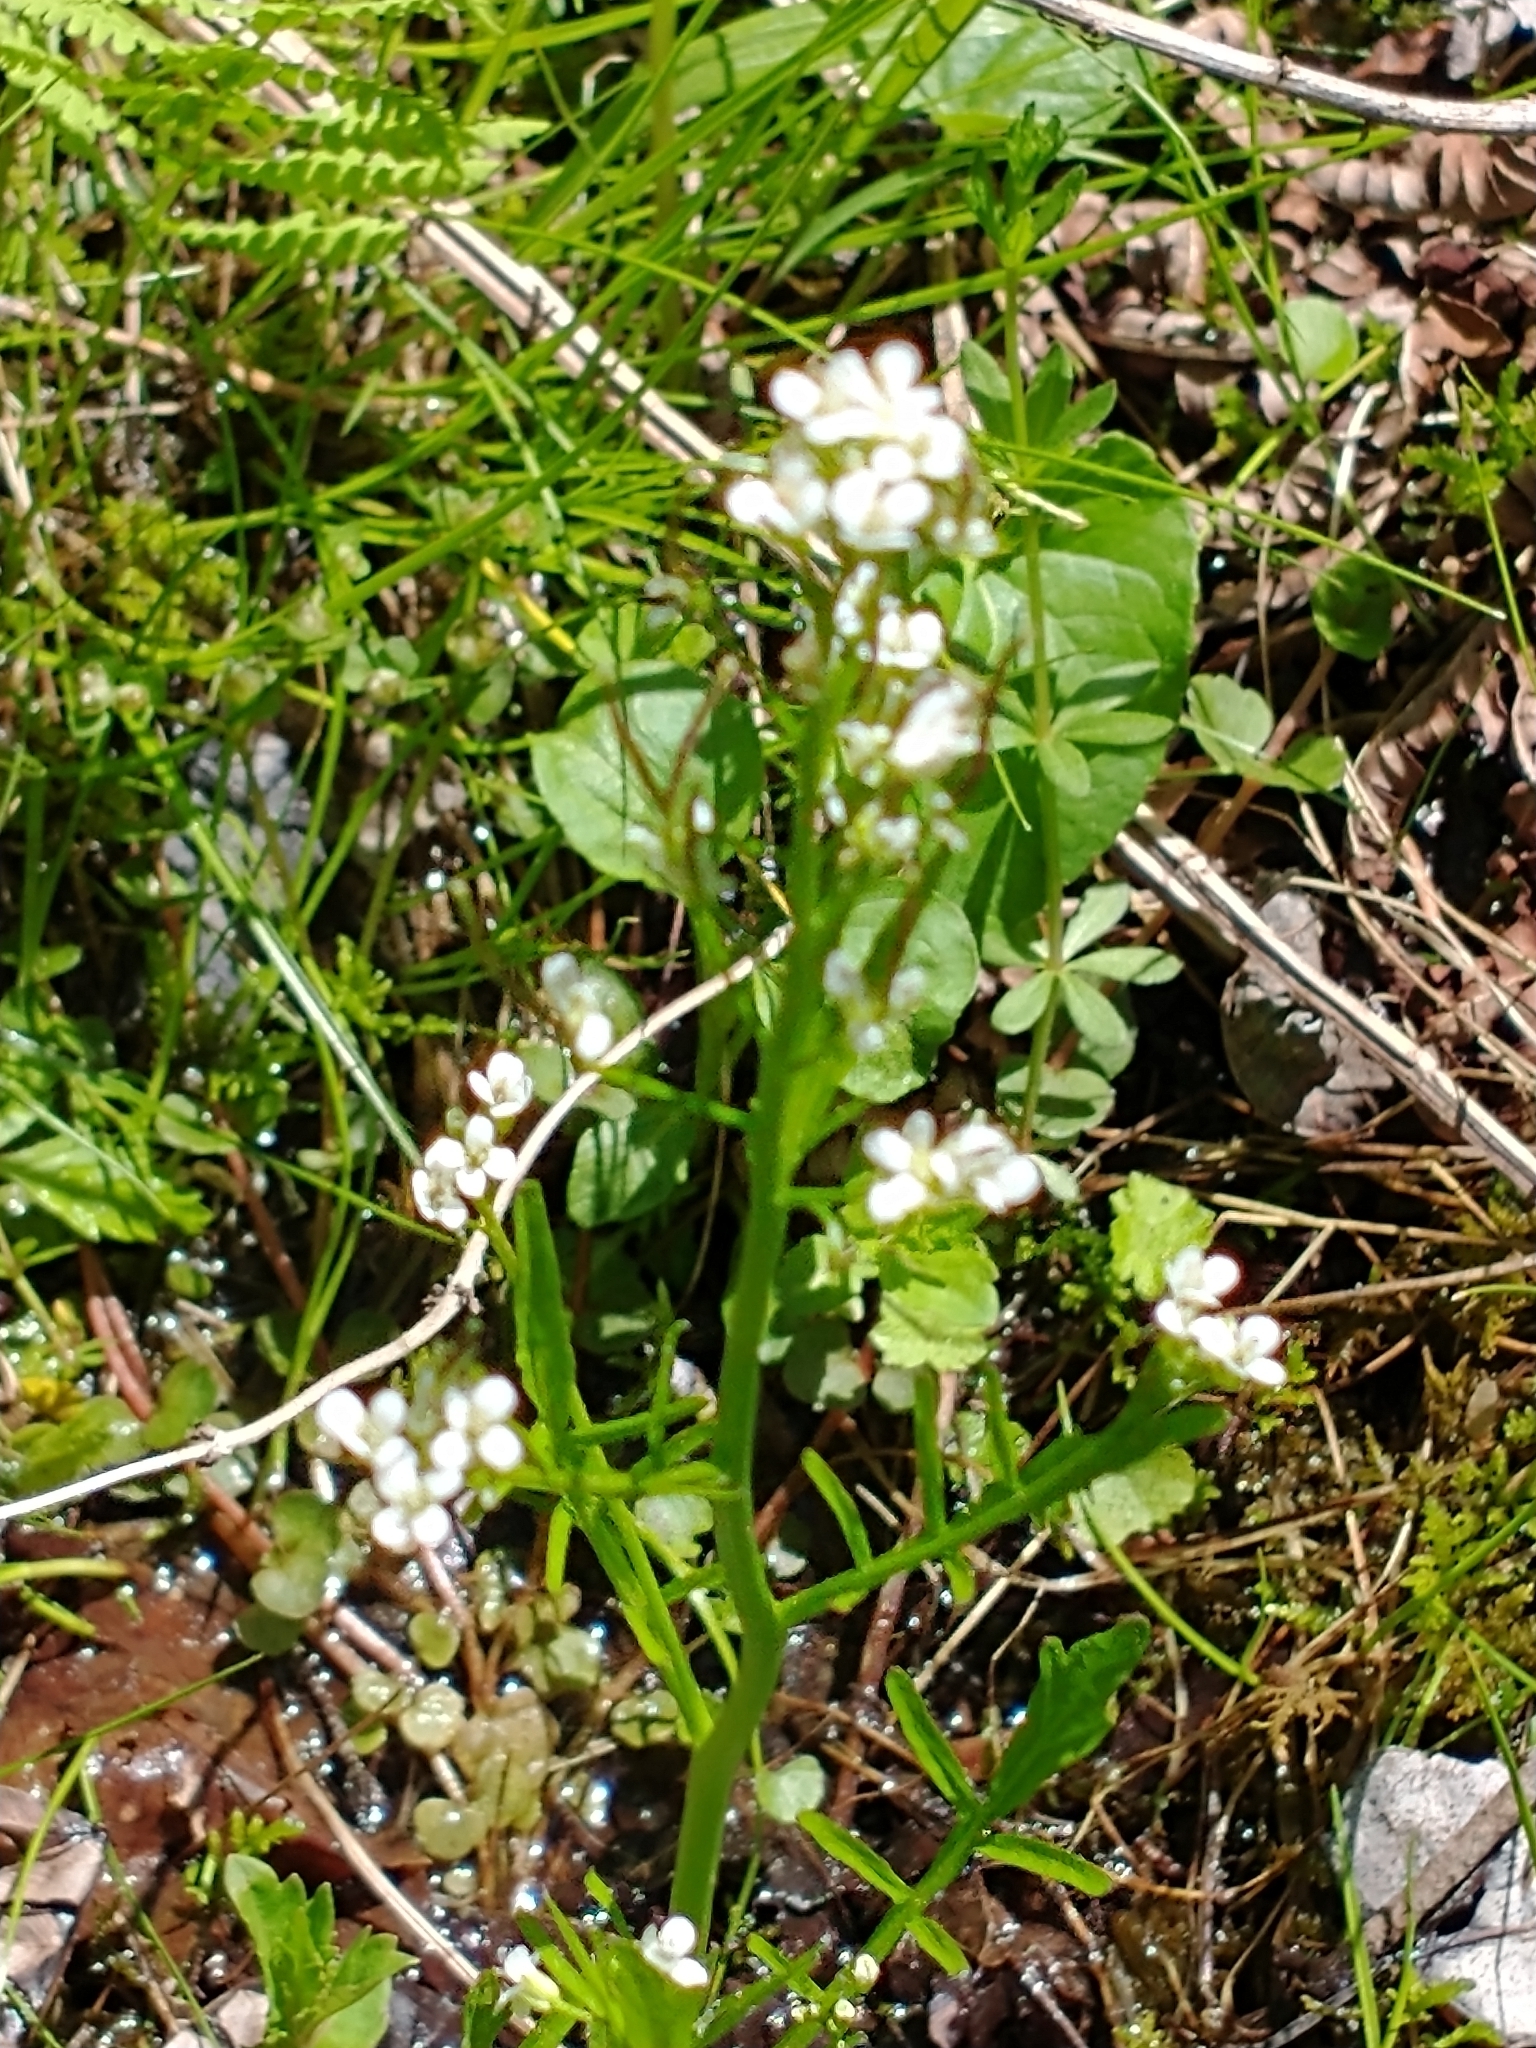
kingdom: Plantae
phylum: Tracheophyta
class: Magnoliopsida
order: Brassicales
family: Brassicaceae
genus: Cardamine
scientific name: Cardamine pensylvanica
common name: Pennsylvania bittercress
